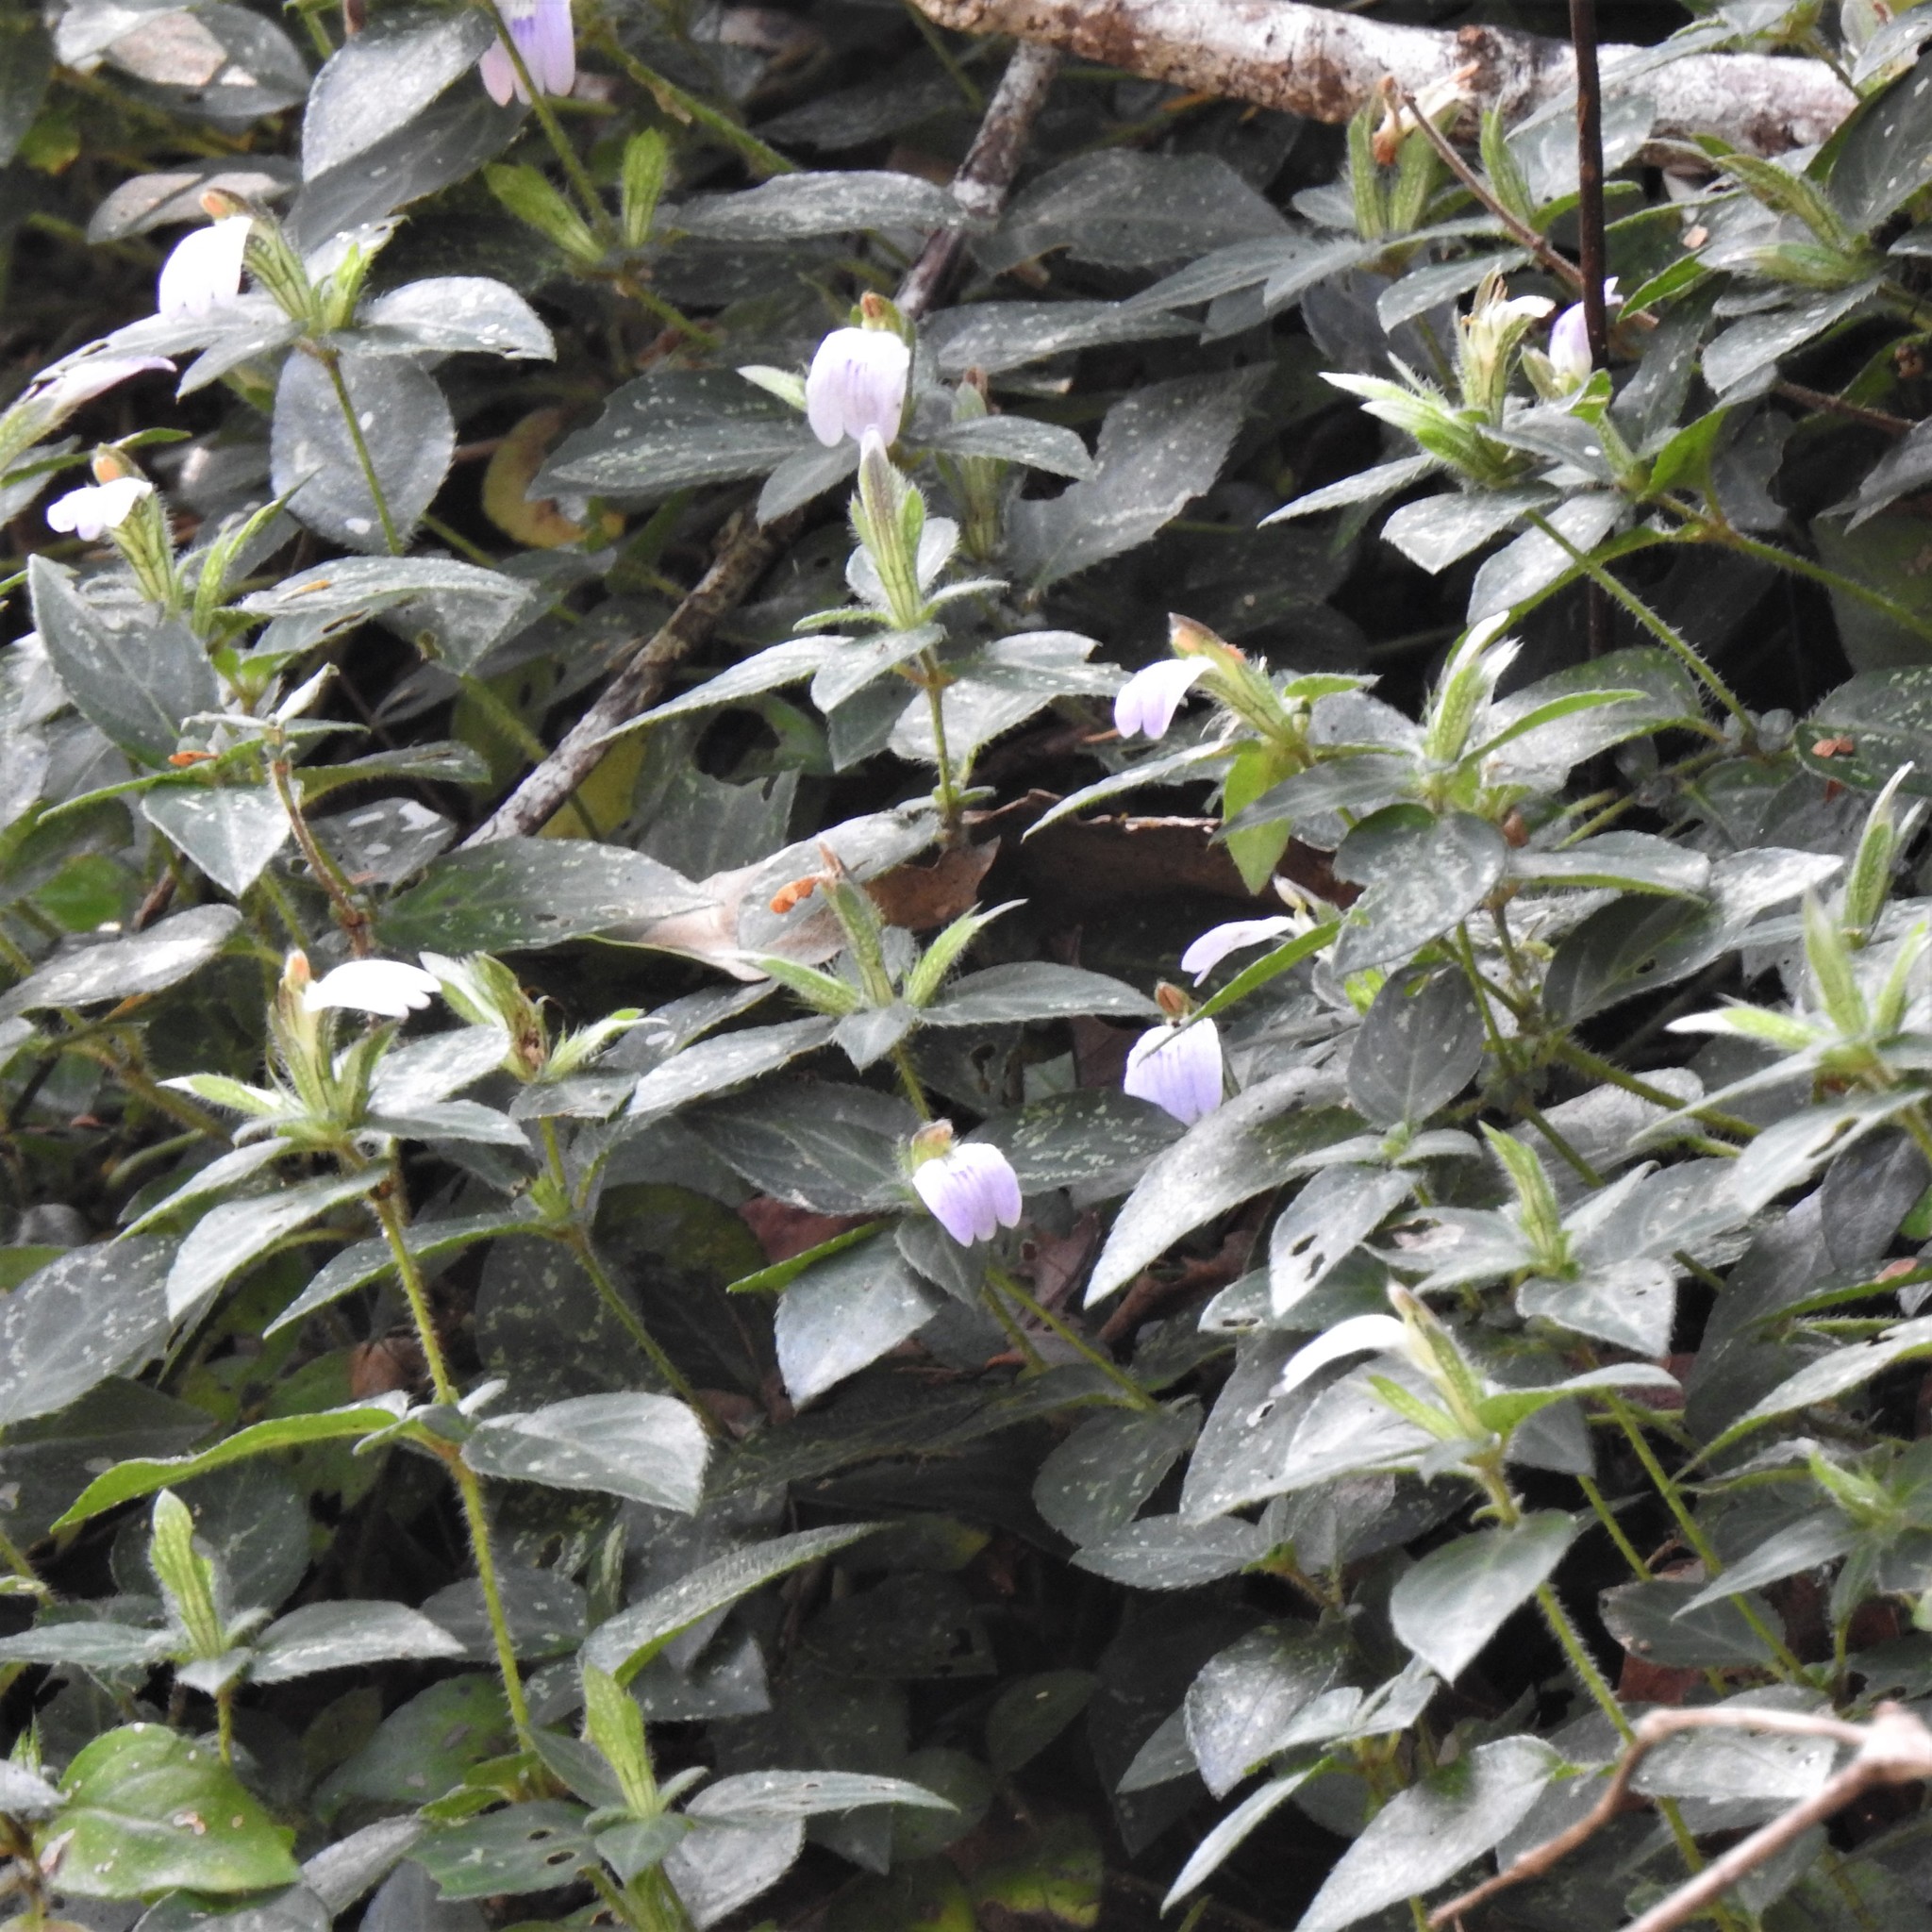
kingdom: Plantae
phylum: Tracheophyta
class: Magnoliopsida
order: Lamiales
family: Acanthaceae
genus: Cynarospermum
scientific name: Cynarospermum asperrimum
